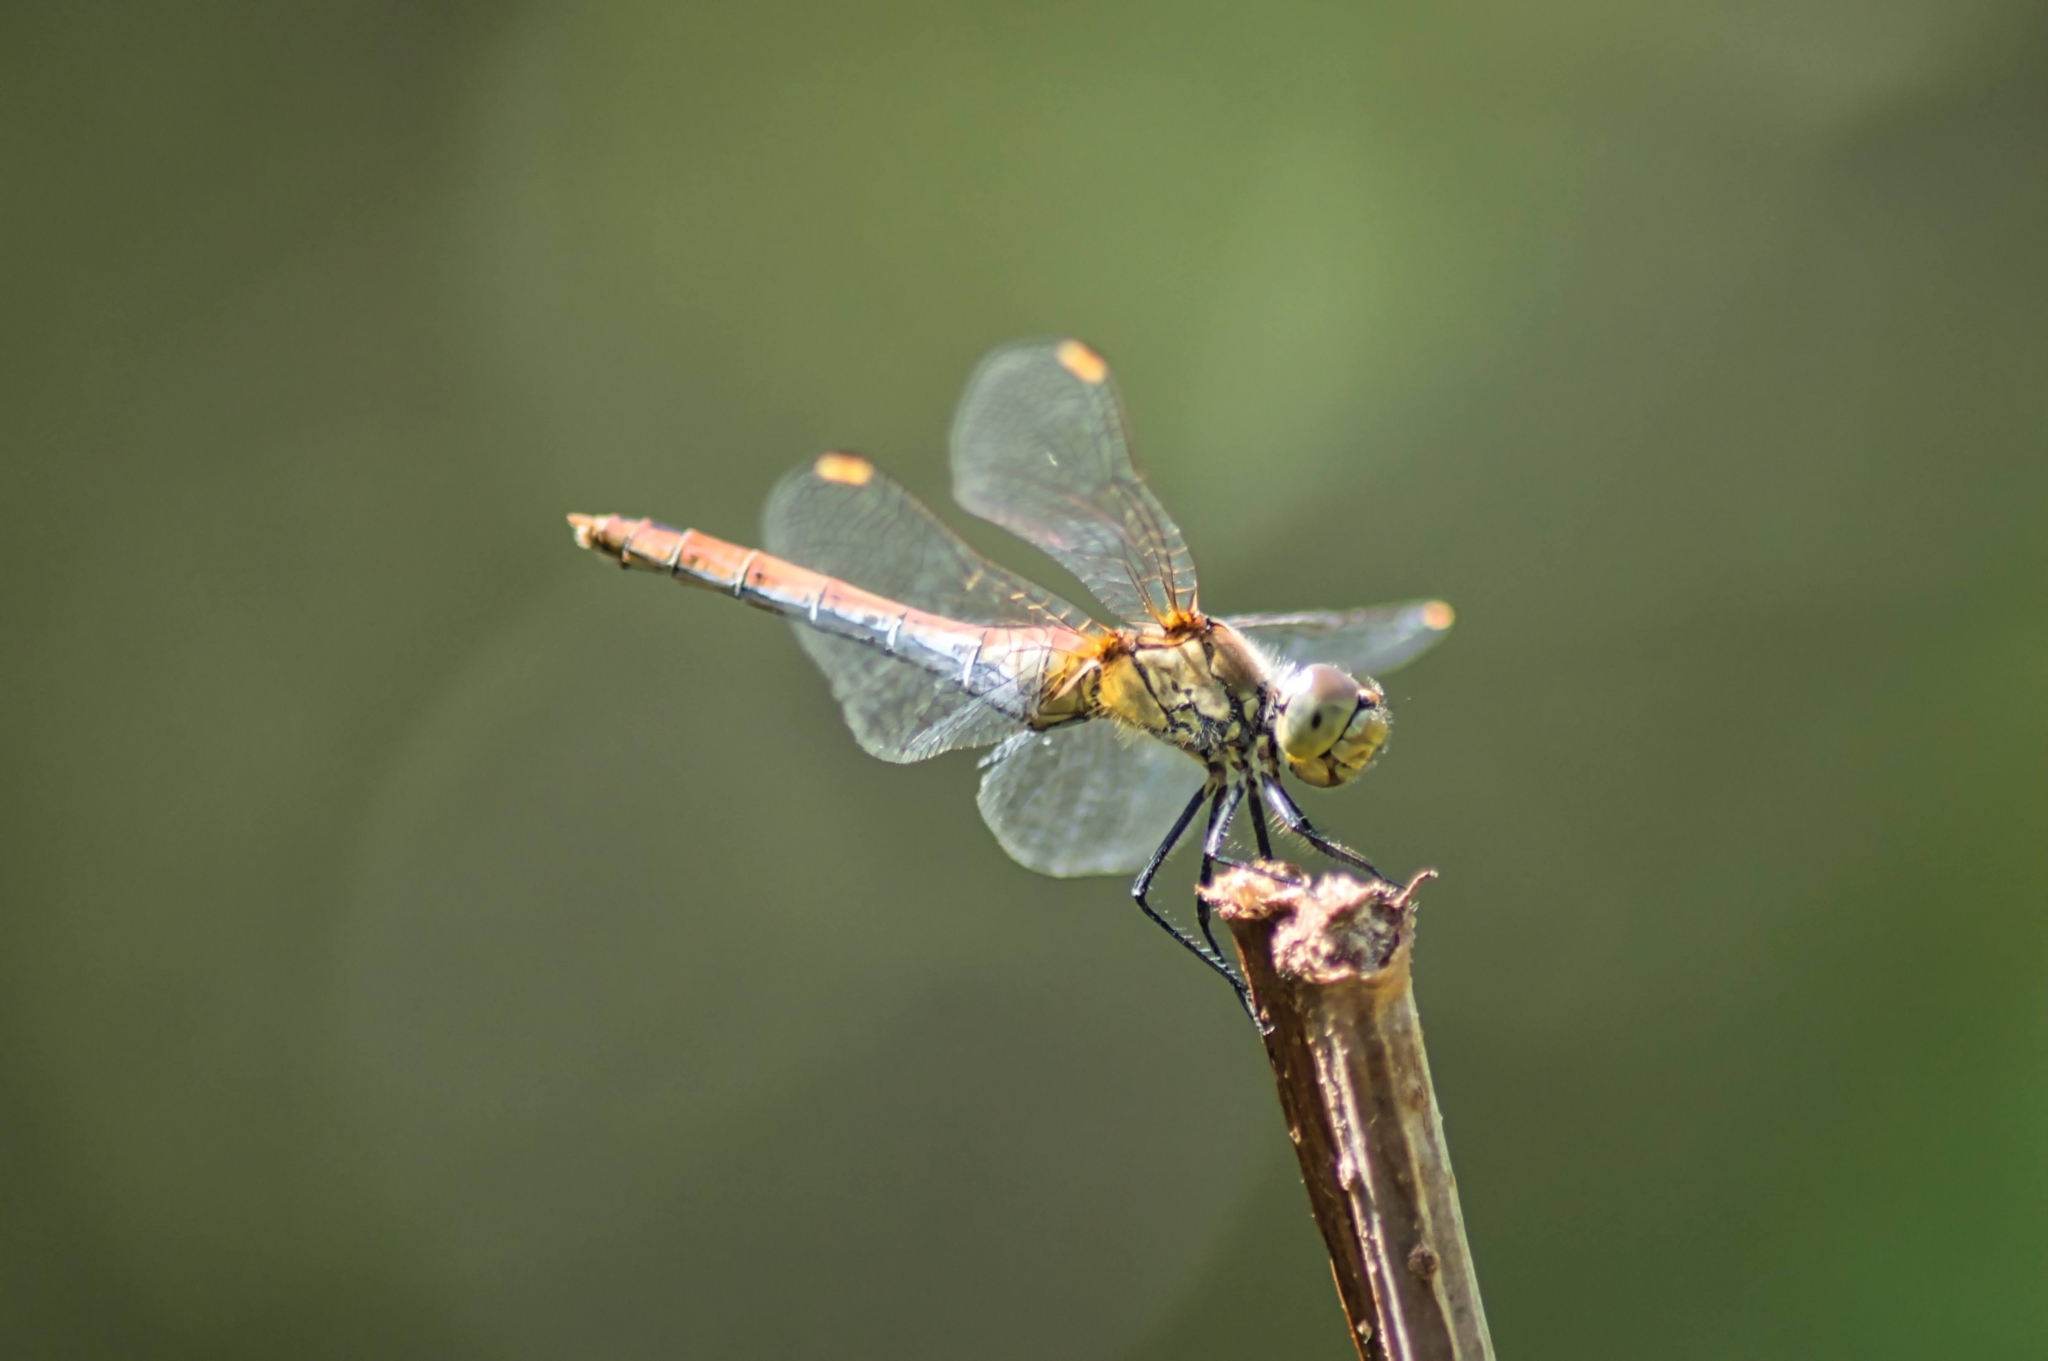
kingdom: Animalia
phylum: Arthropoda
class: Insecta
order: Odonata
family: Libellulidae
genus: Sympetrum
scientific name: Sympetrum sanguineum
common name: Ruddy darter
